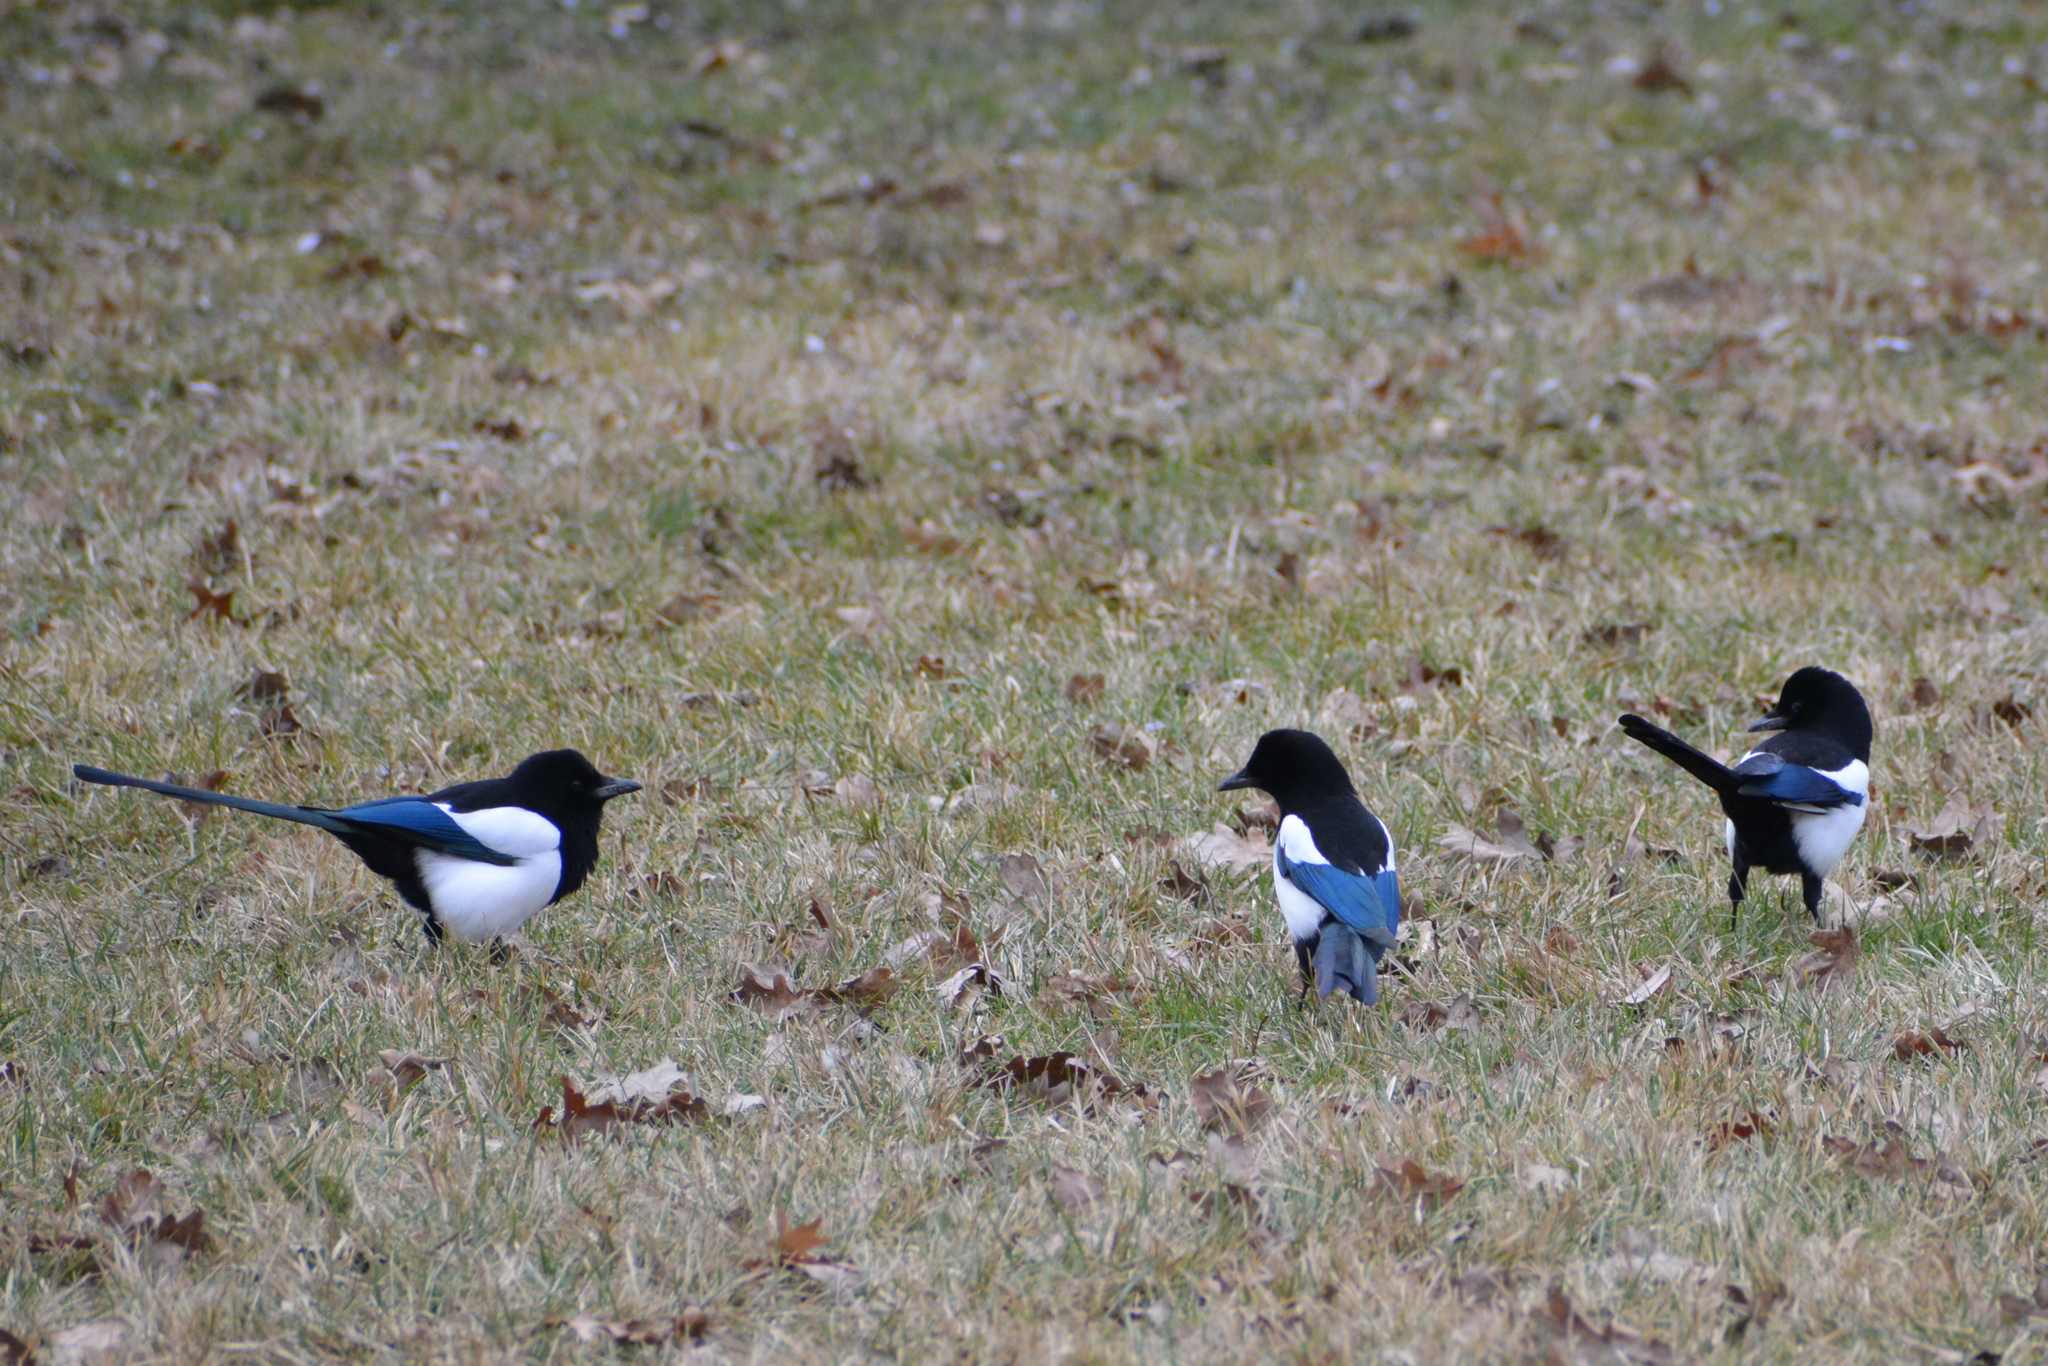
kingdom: Animalia
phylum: Chordata
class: Aves
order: Passeriformes
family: Corvidae
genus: Pica
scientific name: Pica pica
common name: Eurasian magpie
